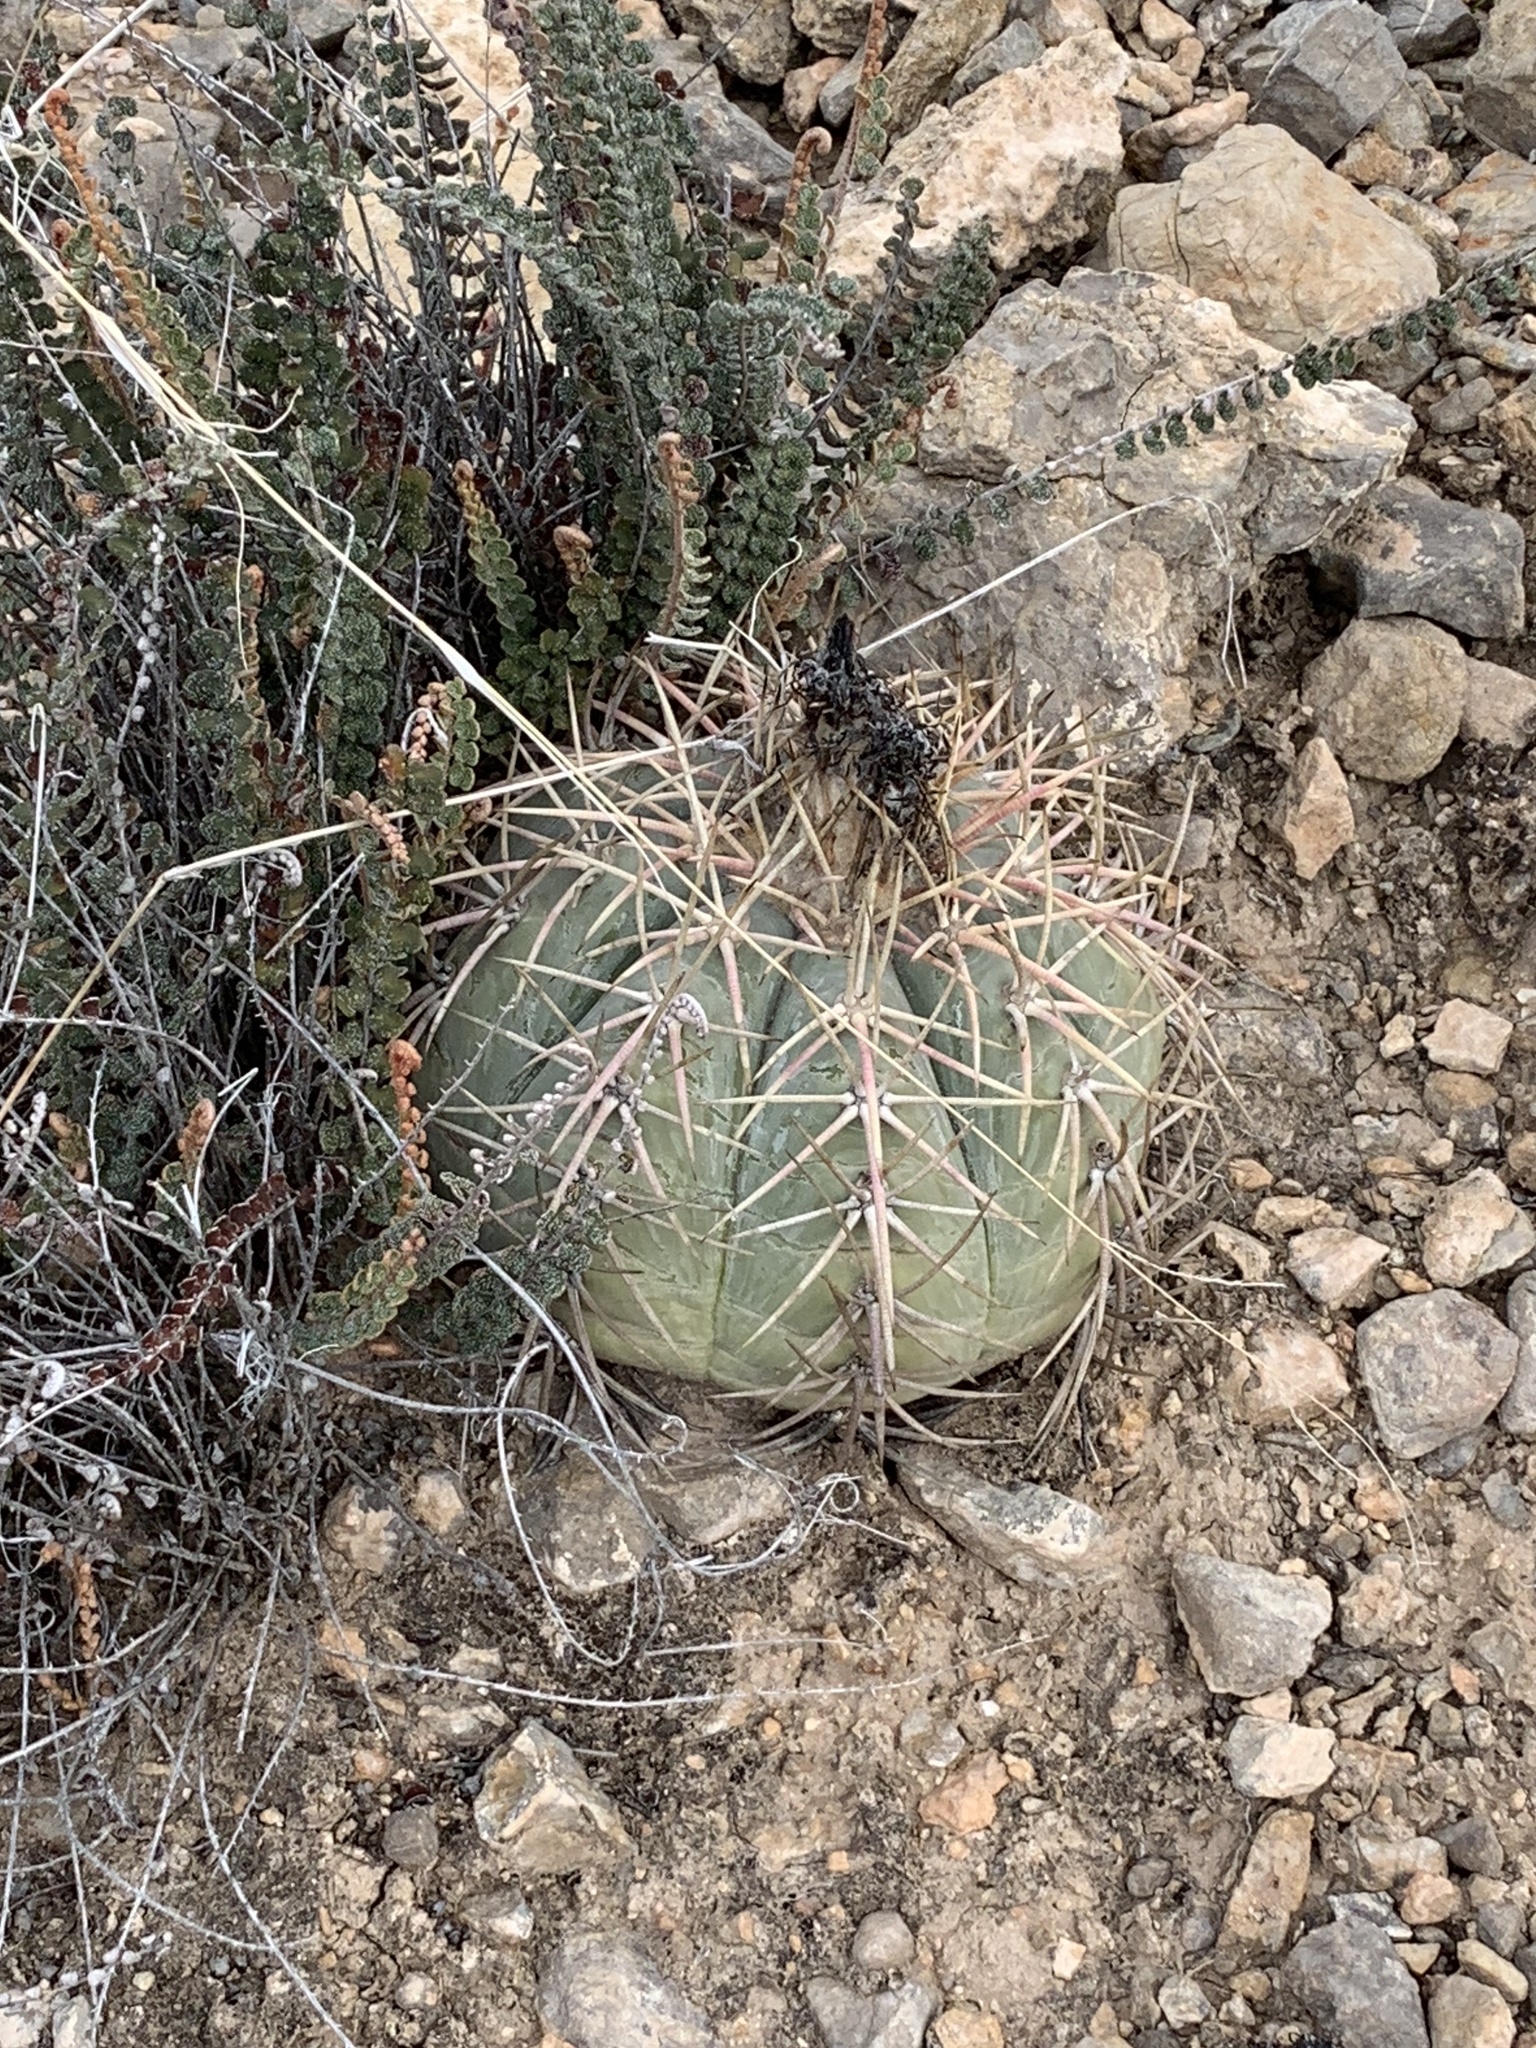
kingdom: Plantae
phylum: Tracheophyta
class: Magnoliopsida
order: Caryophyllales
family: Cactaceae
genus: Echinocactus
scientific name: Echinocactus horizonthalonius
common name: Devilshead
